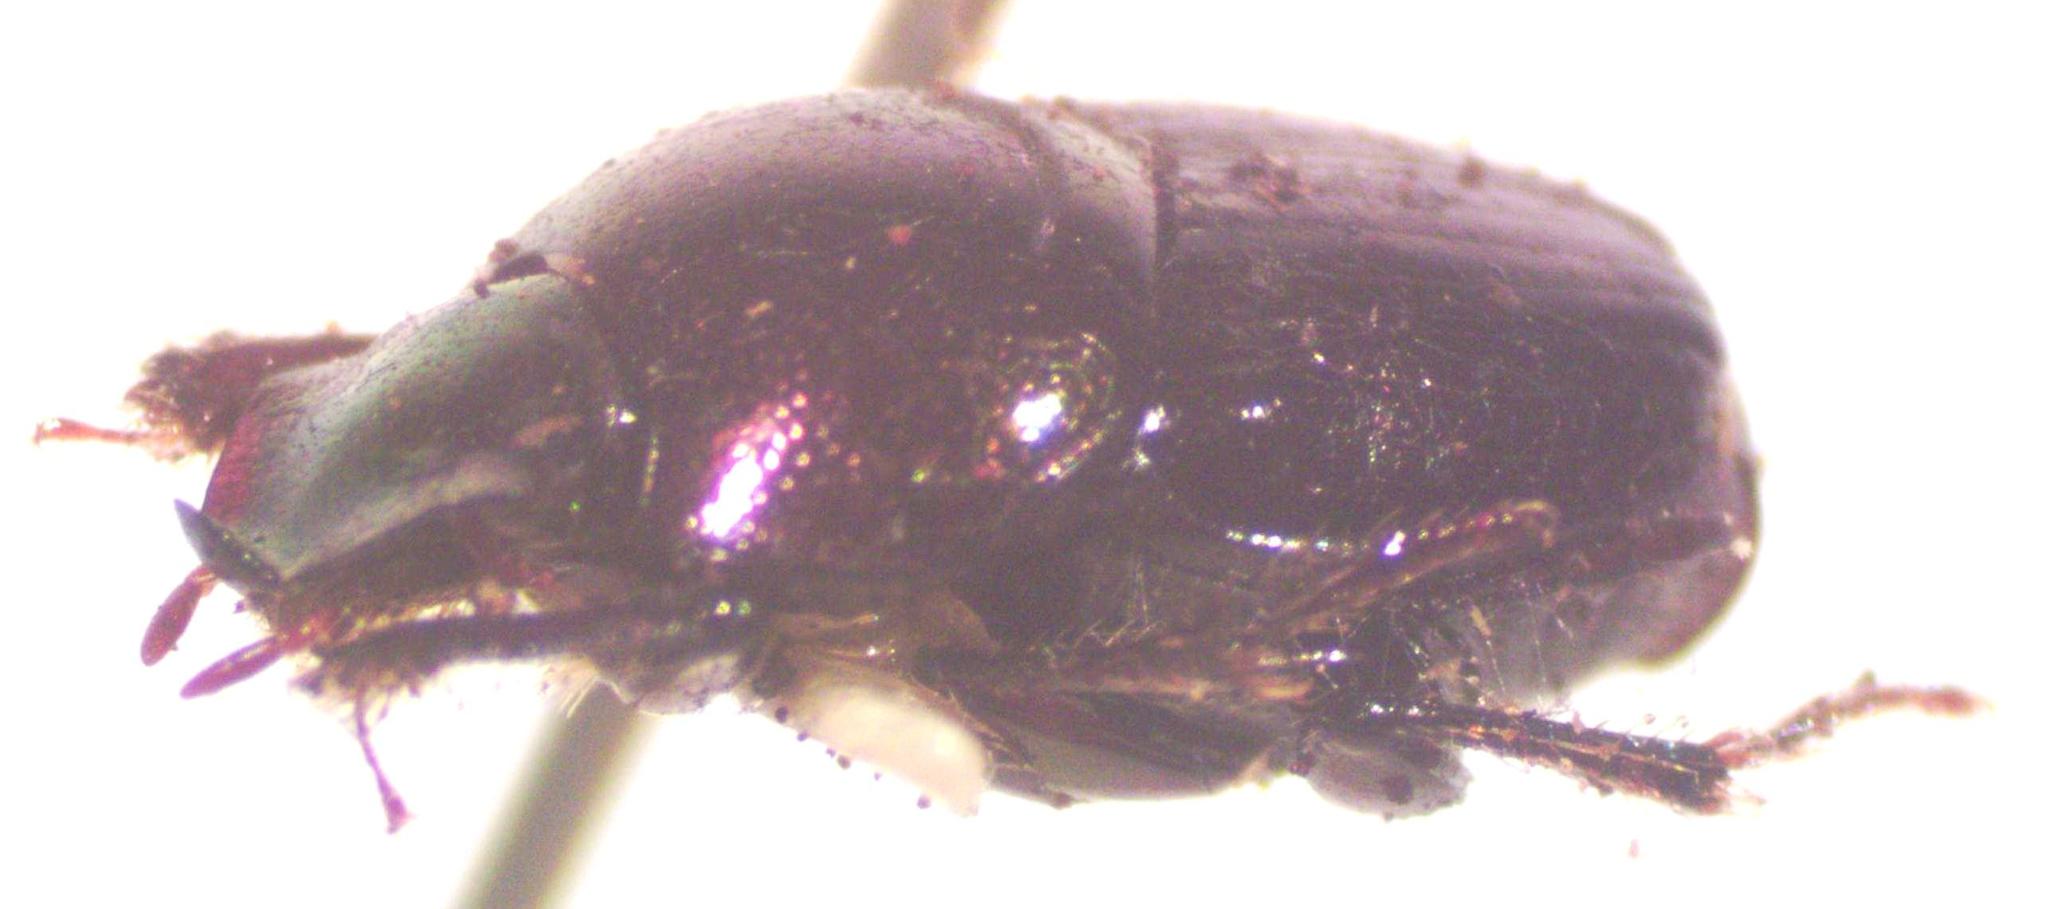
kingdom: Animalia
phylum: Arthropoda
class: Insecta
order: Coleoptera
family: Scarabaeidae
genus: Onthophagus
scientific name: Onthophagus tapirus
